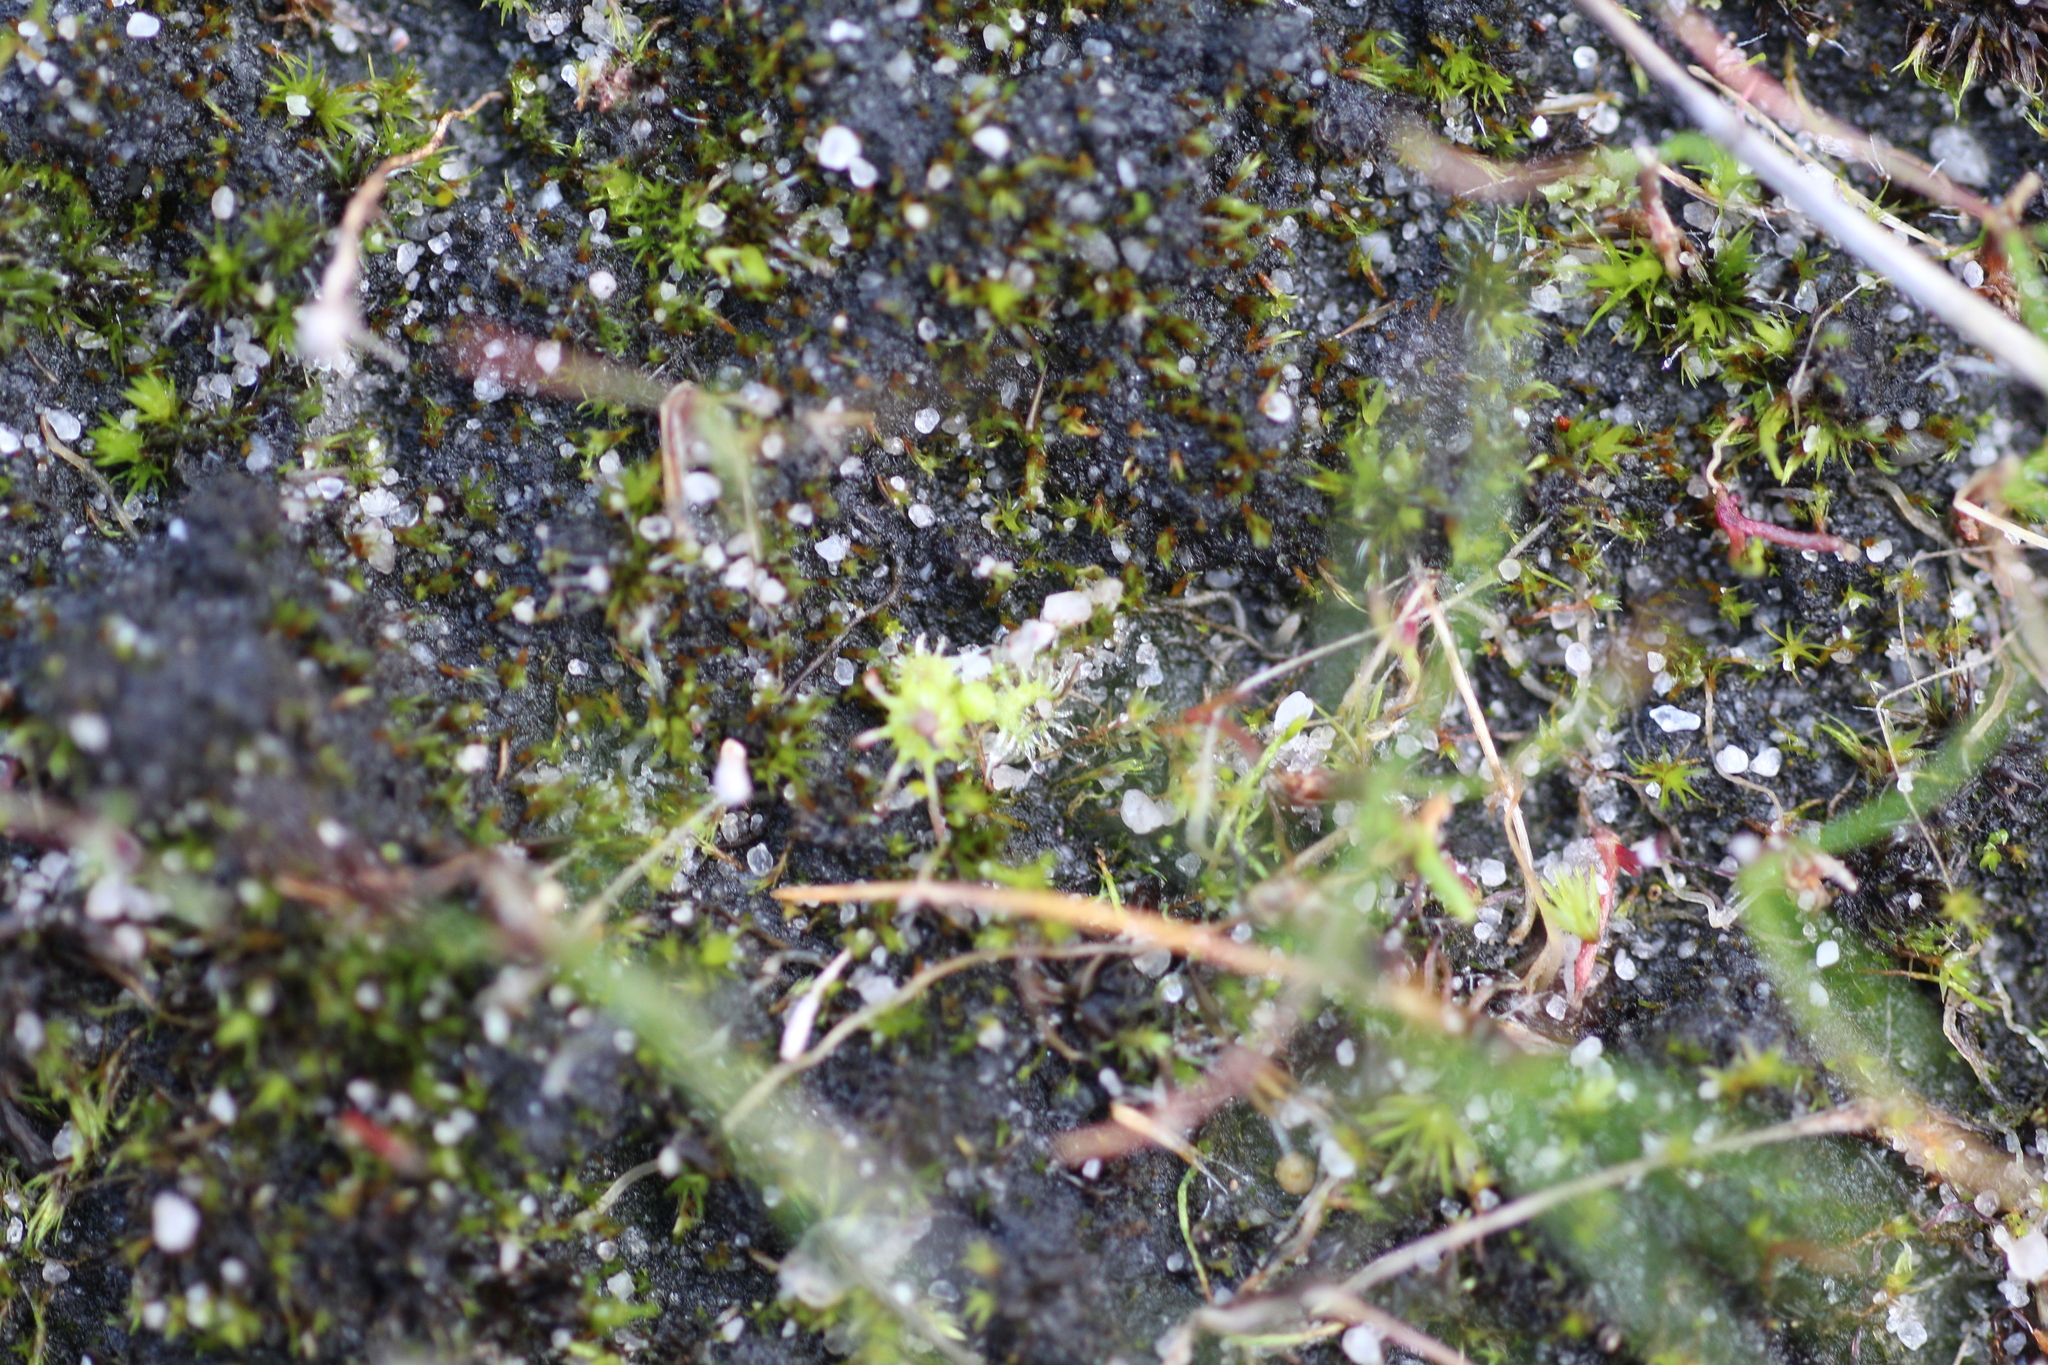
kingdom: Plantae
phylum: Tracheophyta
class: Magnoliopsida
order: Caryophyllales
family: Droseraceae
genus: Drosera
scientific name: Drosera glanduligera
